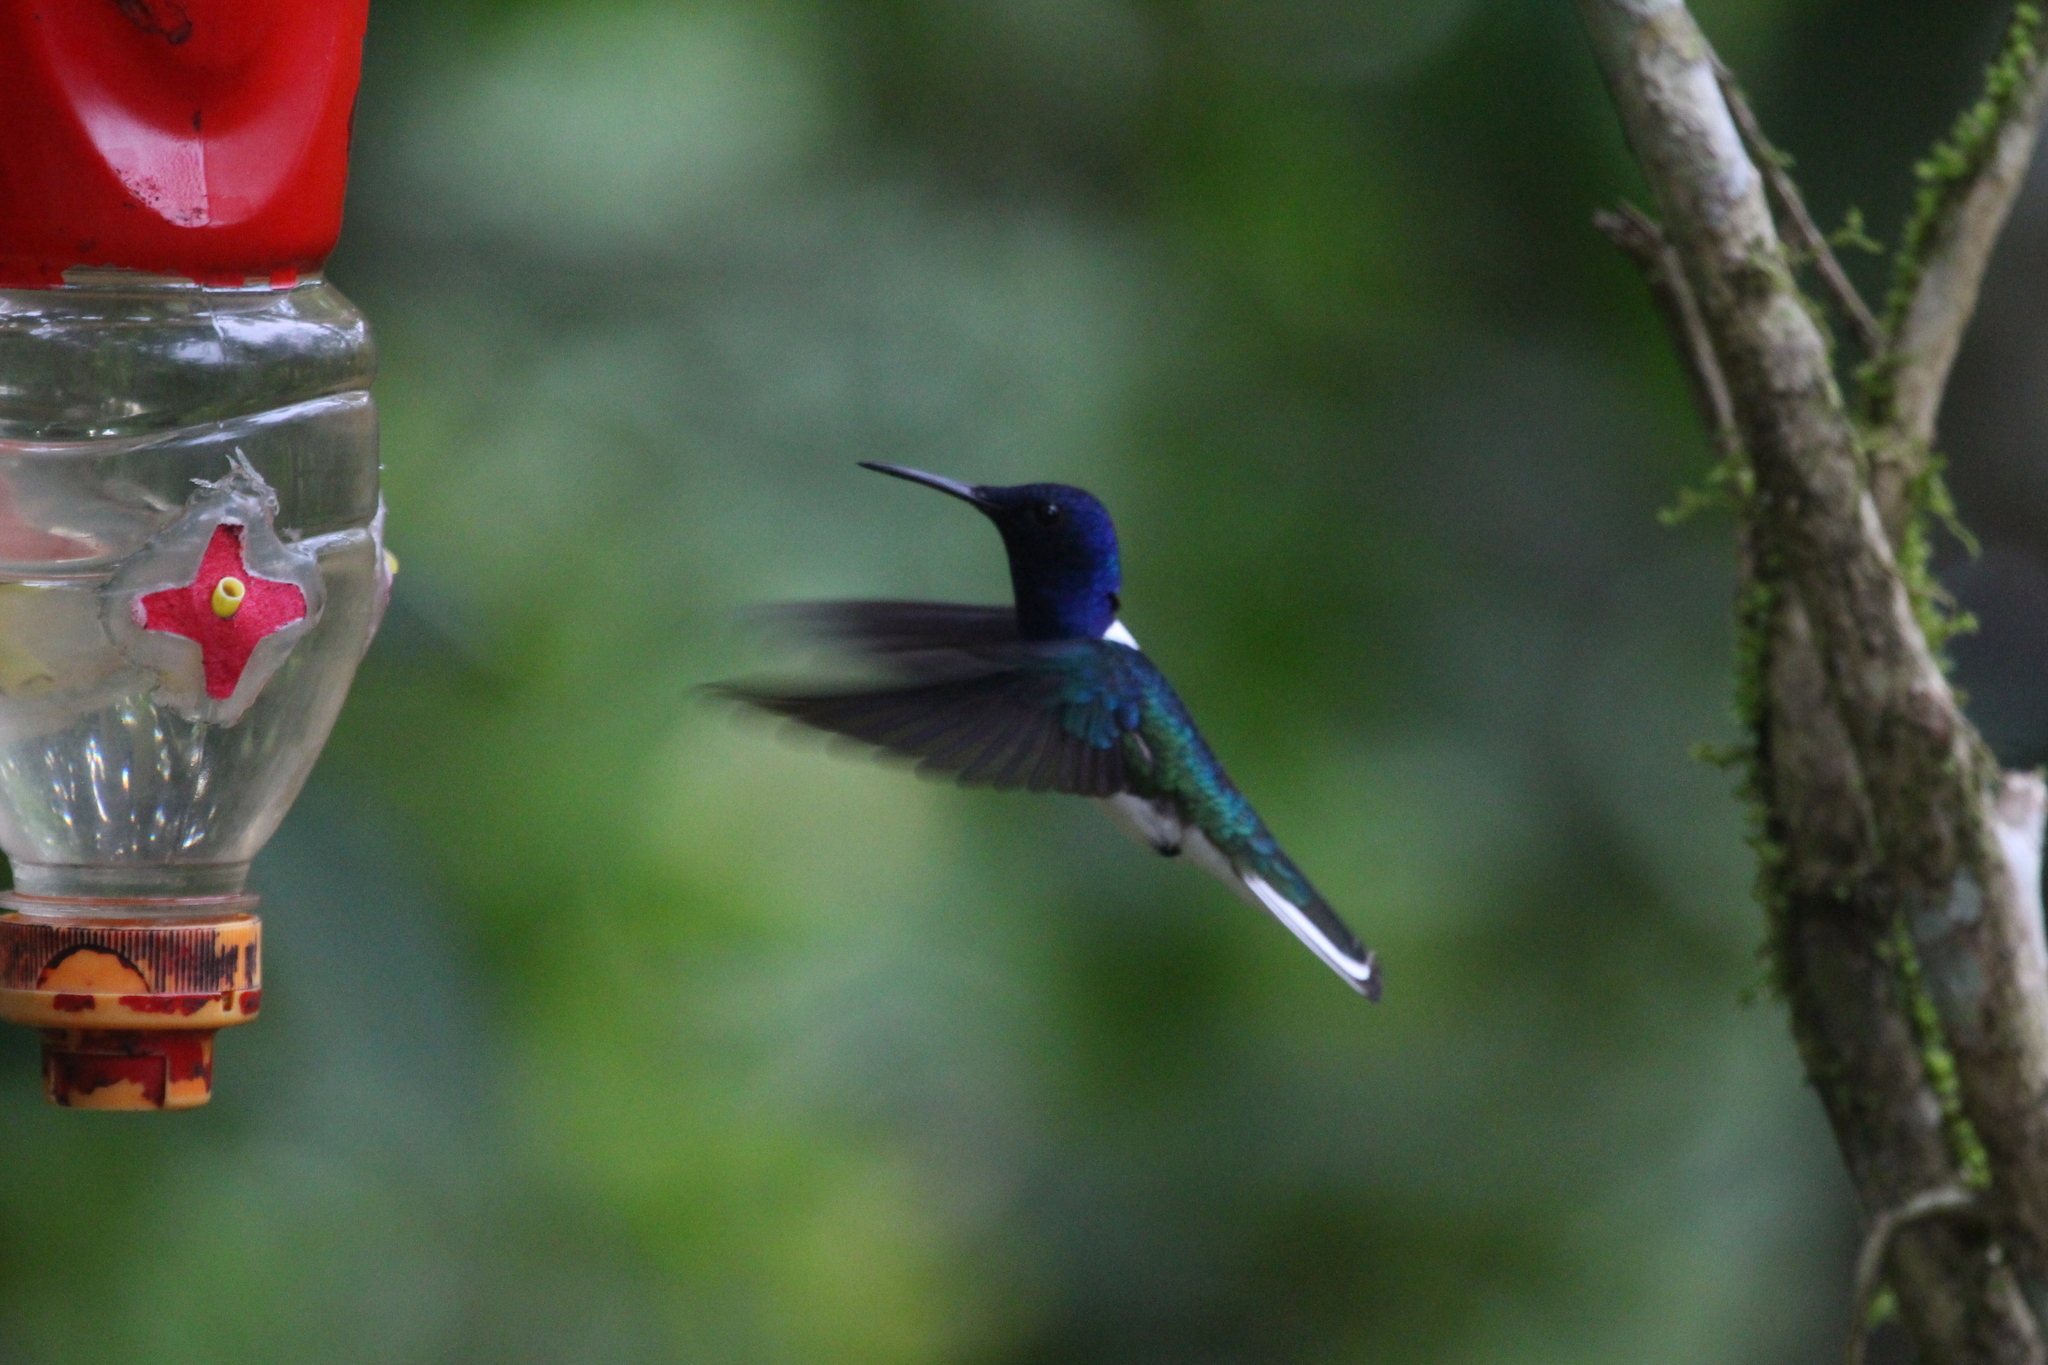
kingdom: Animalia
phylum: Chordata
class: Aves
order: Apodiformes
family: Trochilidae
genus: Florisuga
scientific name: Florisuga mellivora
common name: White-necked jacobin
